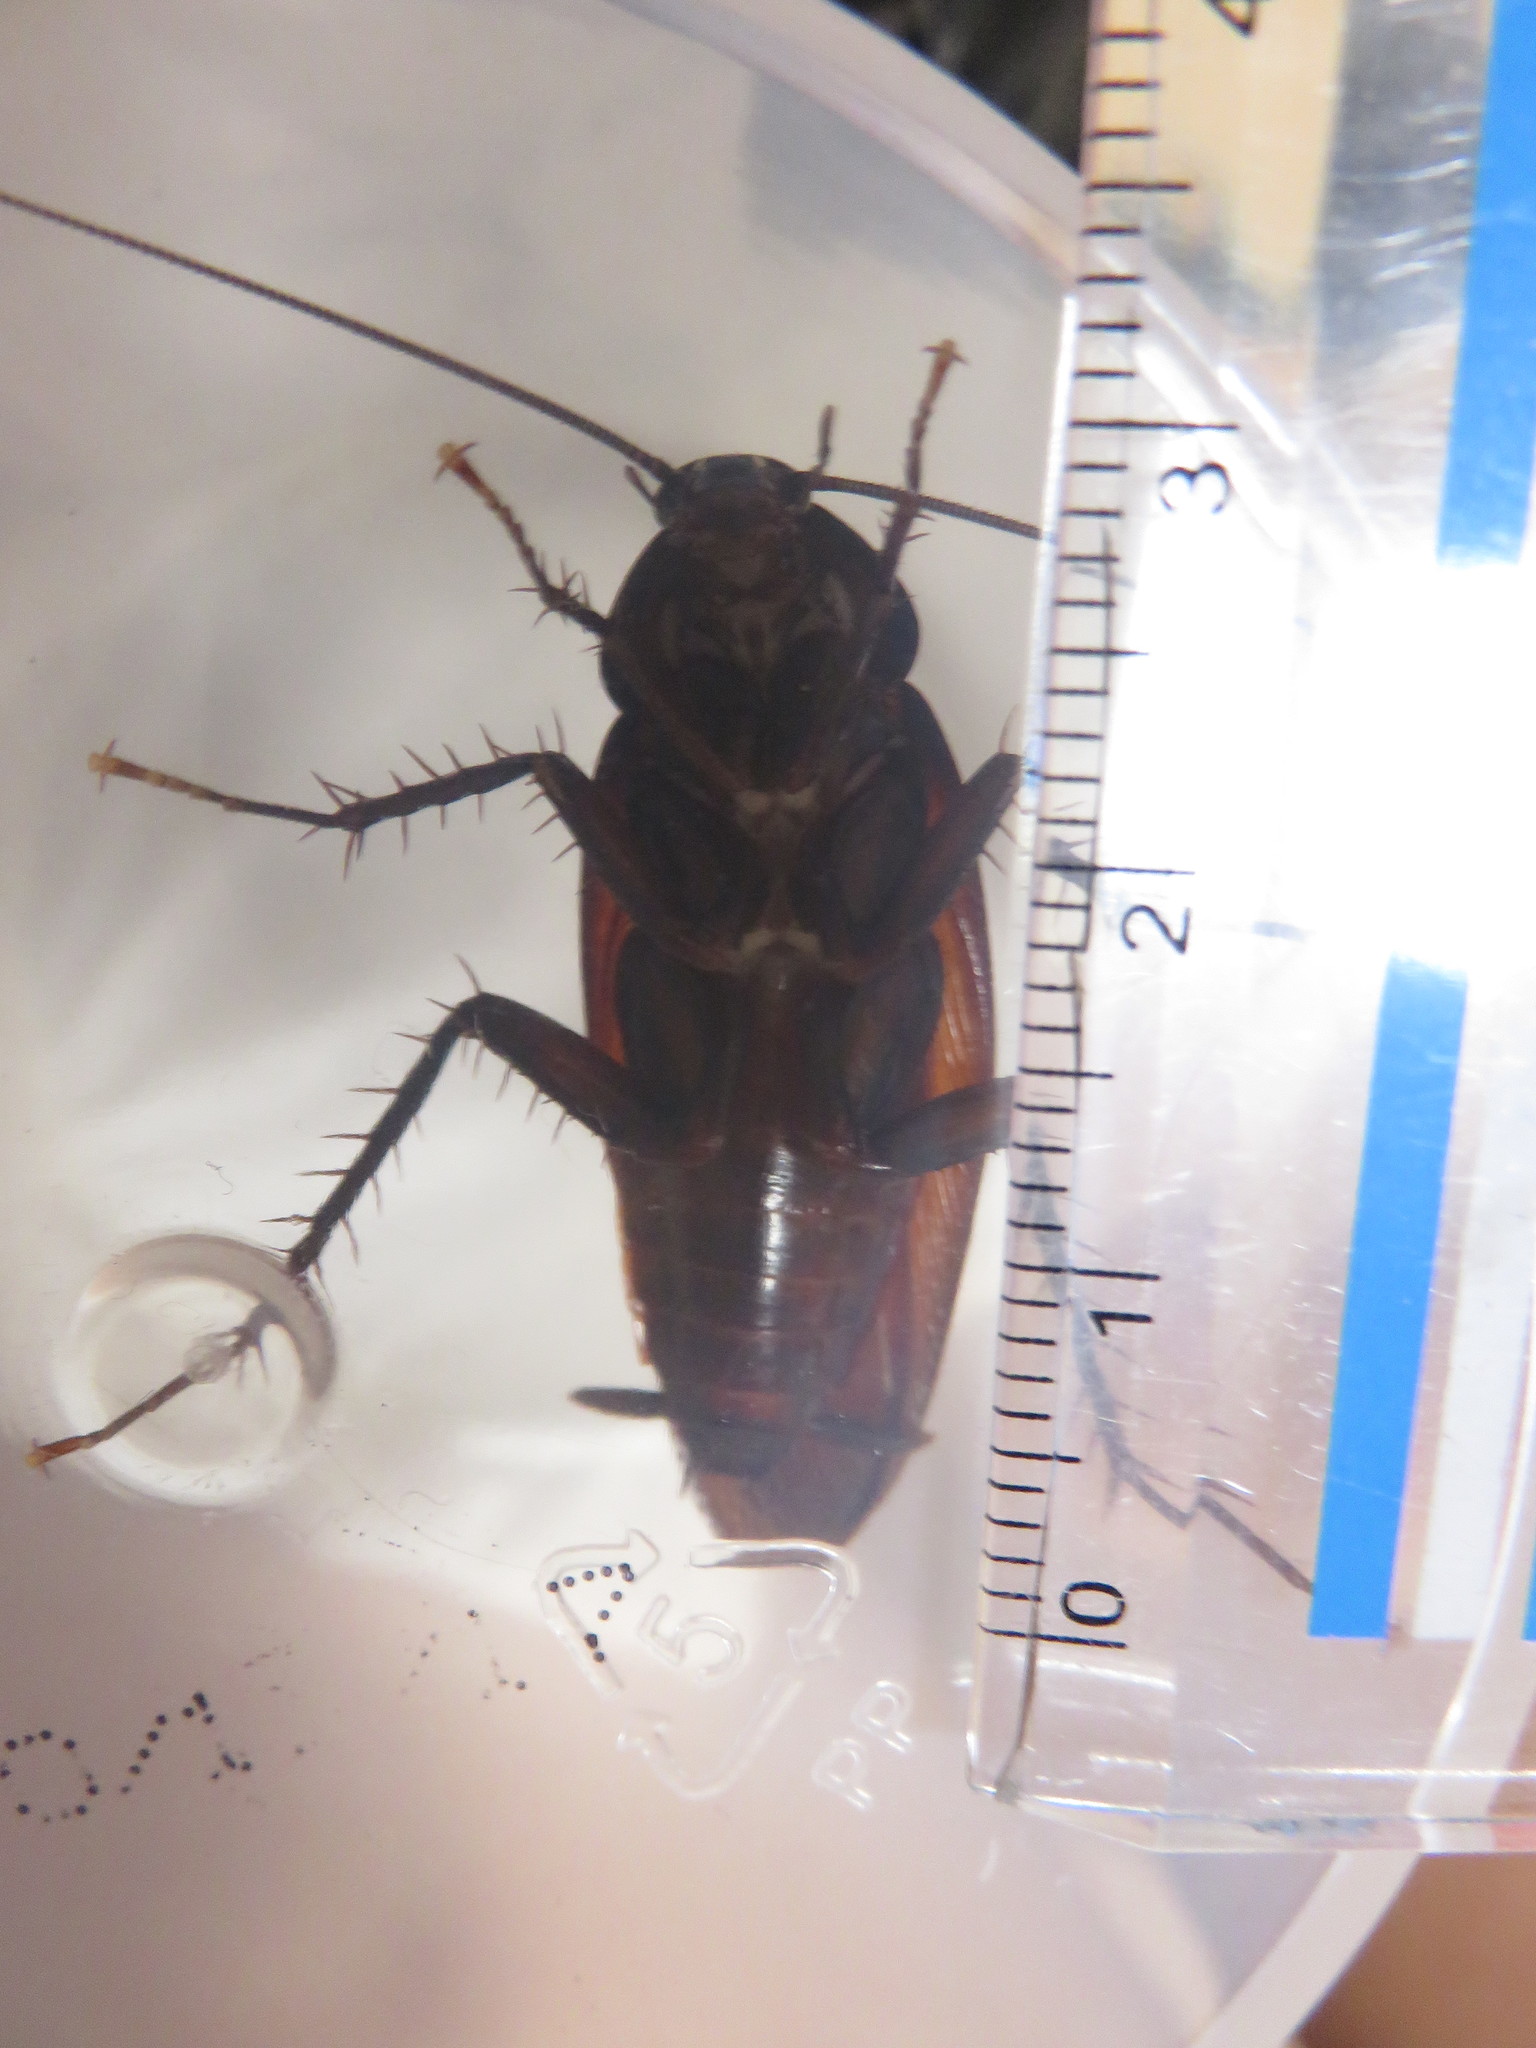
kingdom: Animalia
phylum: Arthropoda
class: Insecta
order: Blattodea
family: Blattidae
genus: Periplaneta
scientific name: Periplaneta fuliginosa
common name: Smokeybrown cockroad
